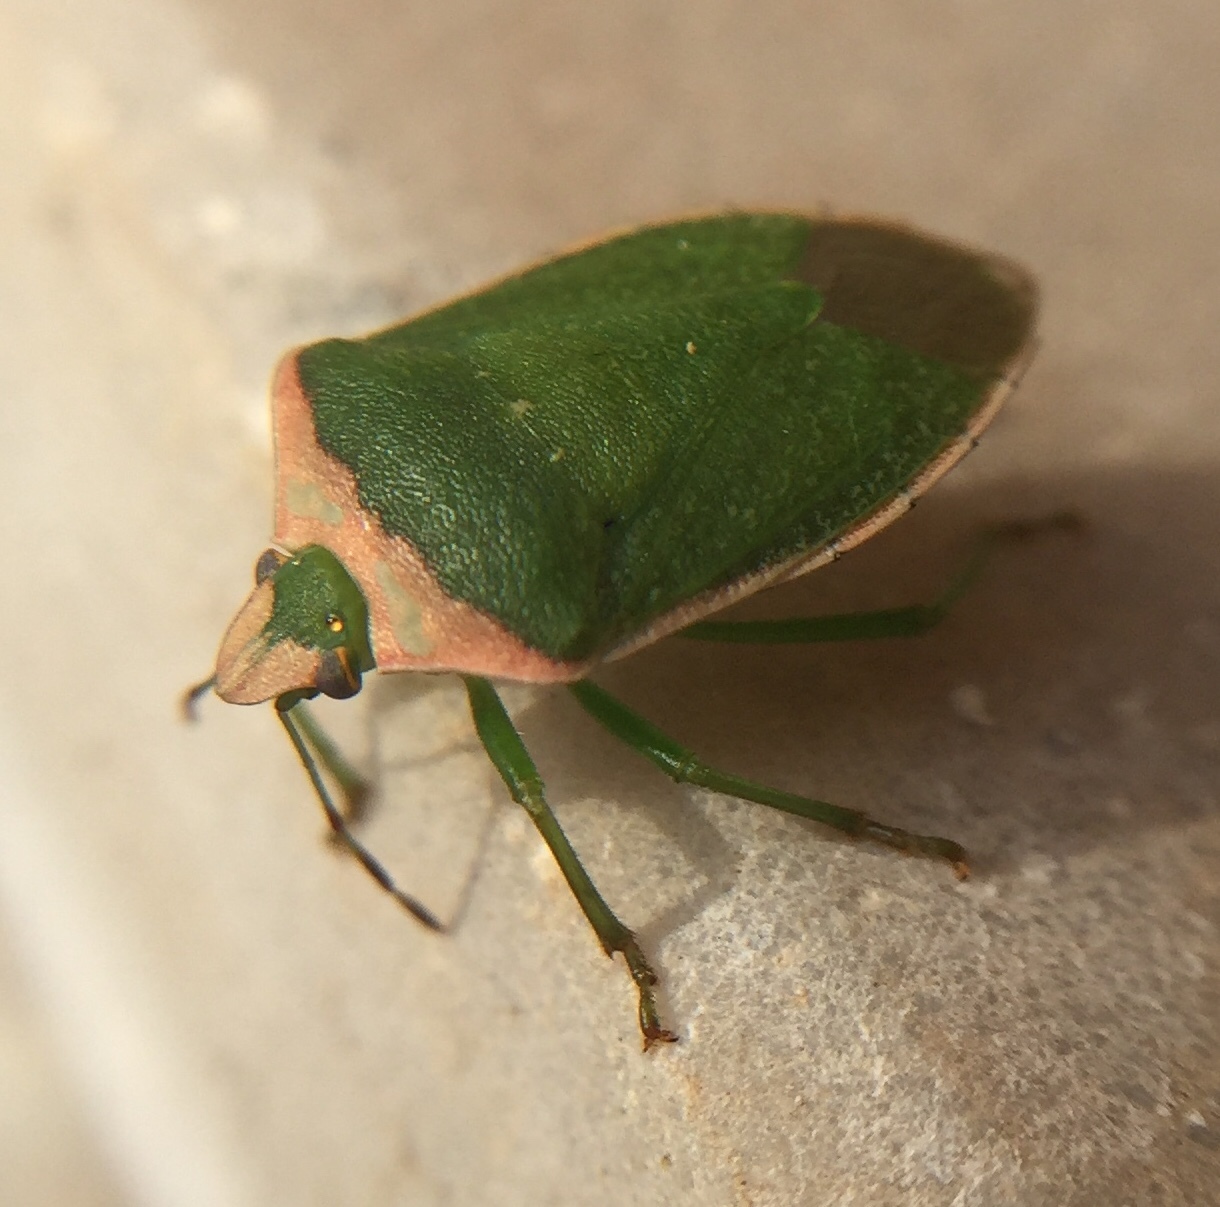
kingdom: Animalia
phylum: Arthropoda
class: Insecta
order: Hemiptera
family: Pentatomidae
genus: Nezara
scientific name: Nezara viridula
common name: Southern green stink bug
